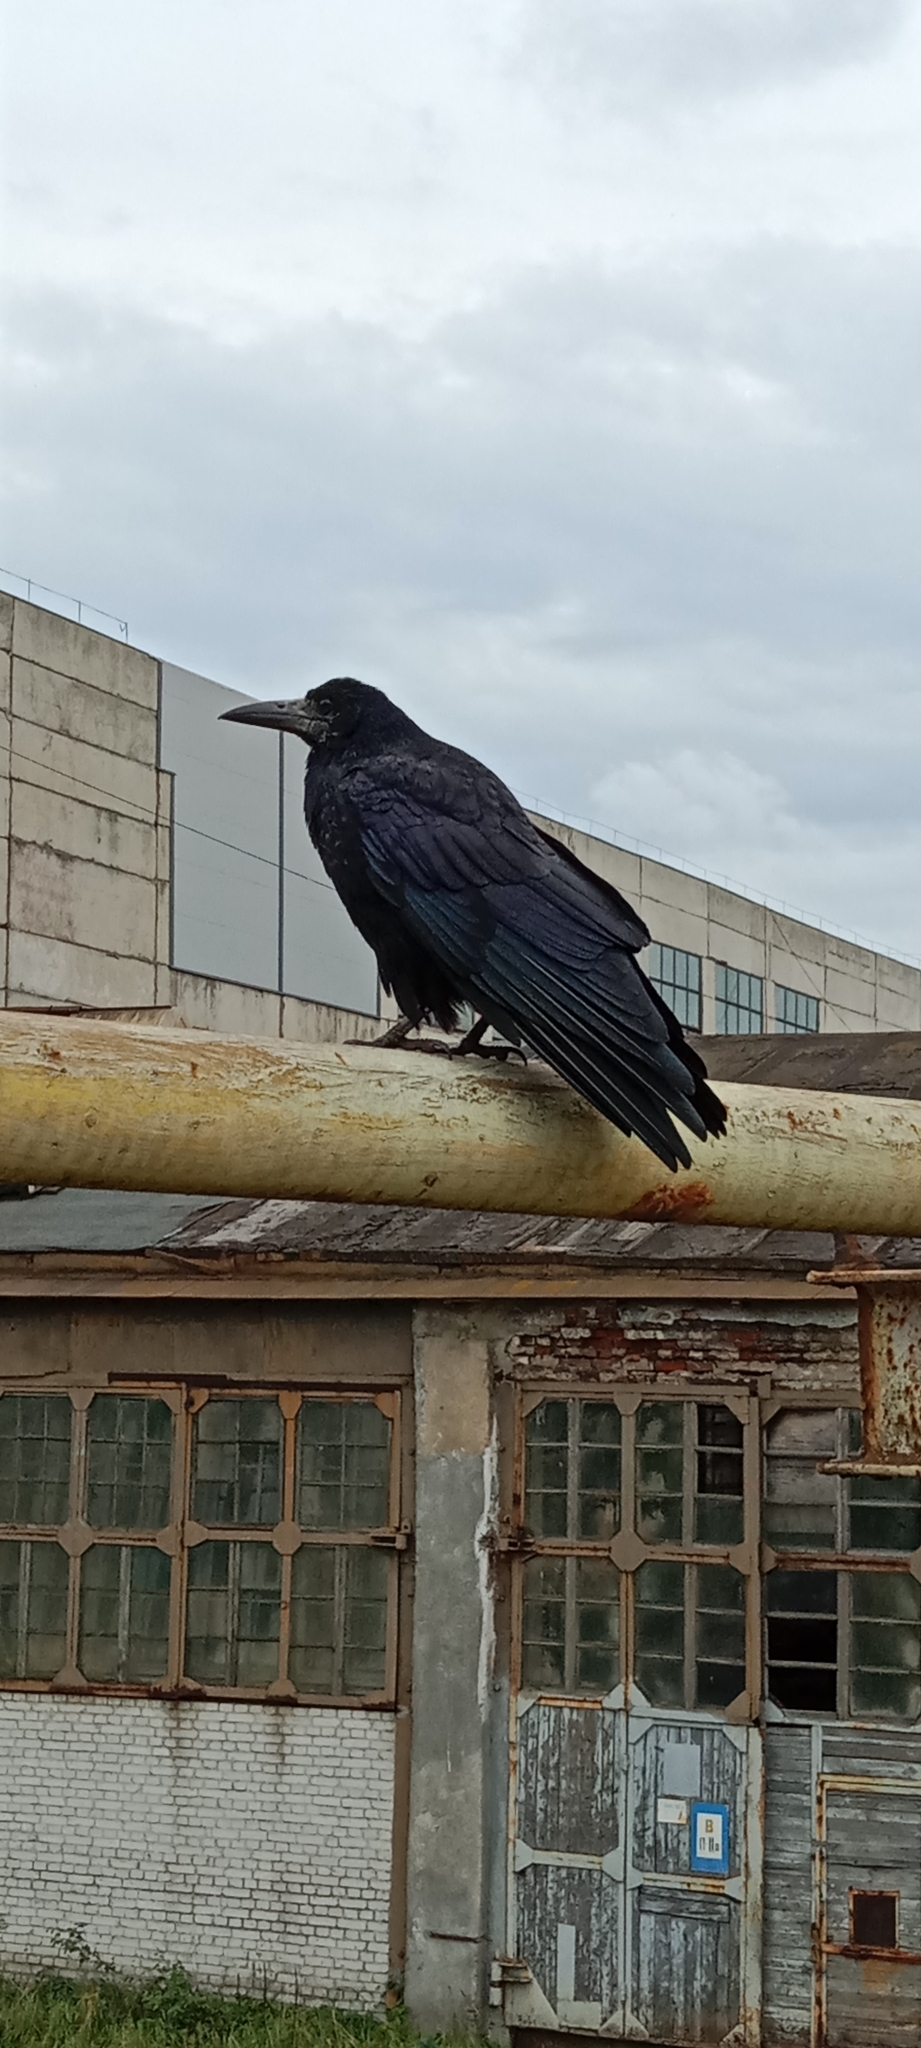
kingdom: Animalia
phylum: Chordata
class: Aves
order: Passeriformes
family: Corvidae
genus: Corvus
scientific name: Corvus frugilegus
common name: Rook
